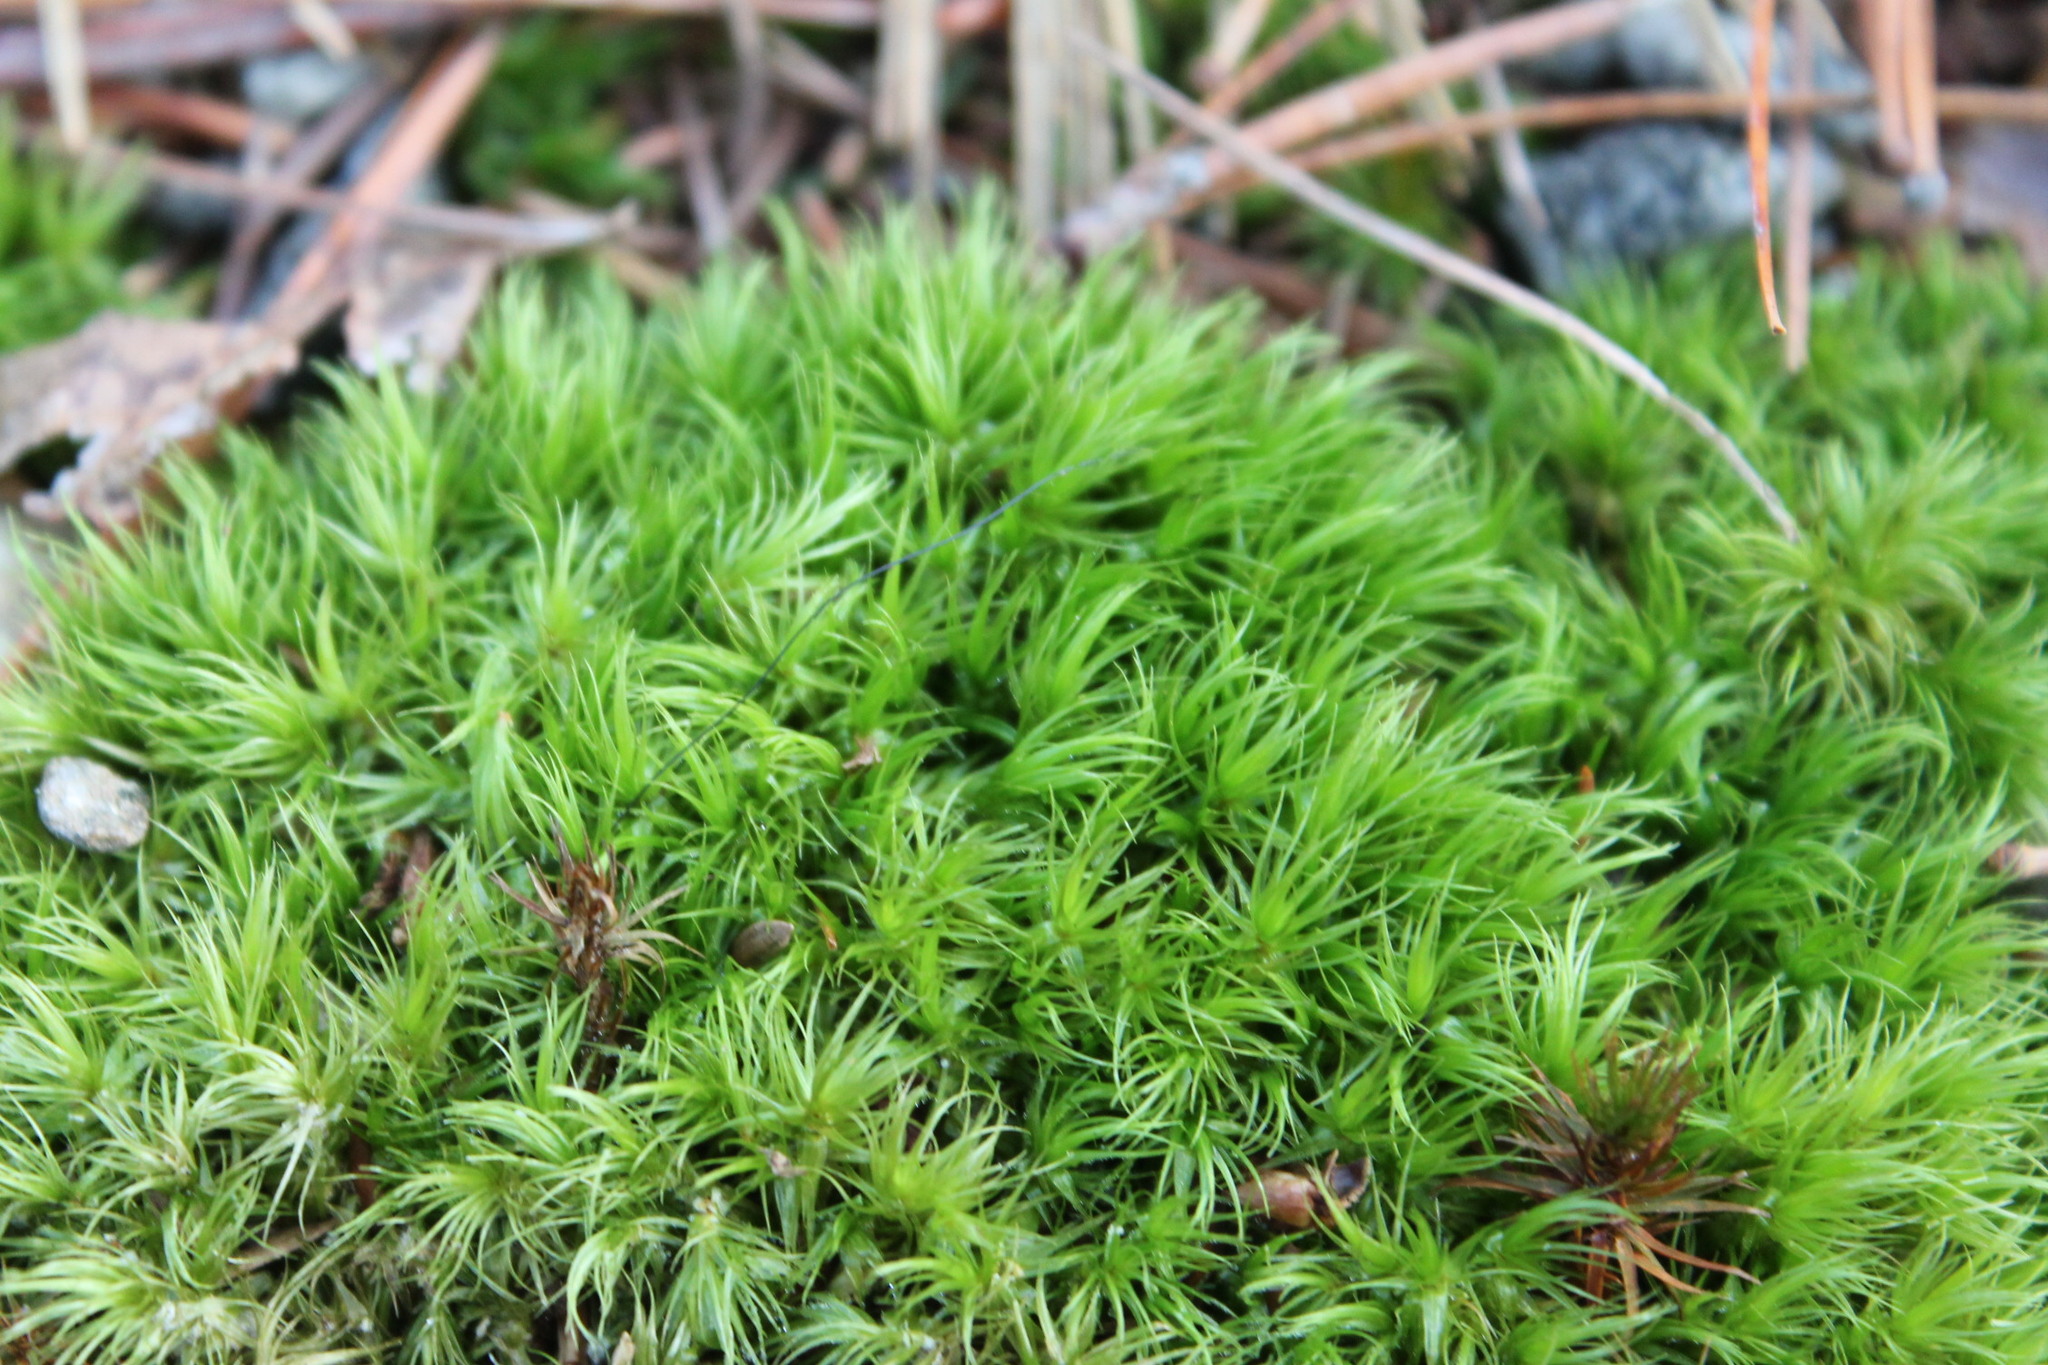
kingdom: Plantae
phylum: Bryophyta
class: Bryopsida
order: Dicranales
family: Dicranaceae
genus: Dicranum
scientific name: Dicranum scoparium
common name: Broom fork-moss
